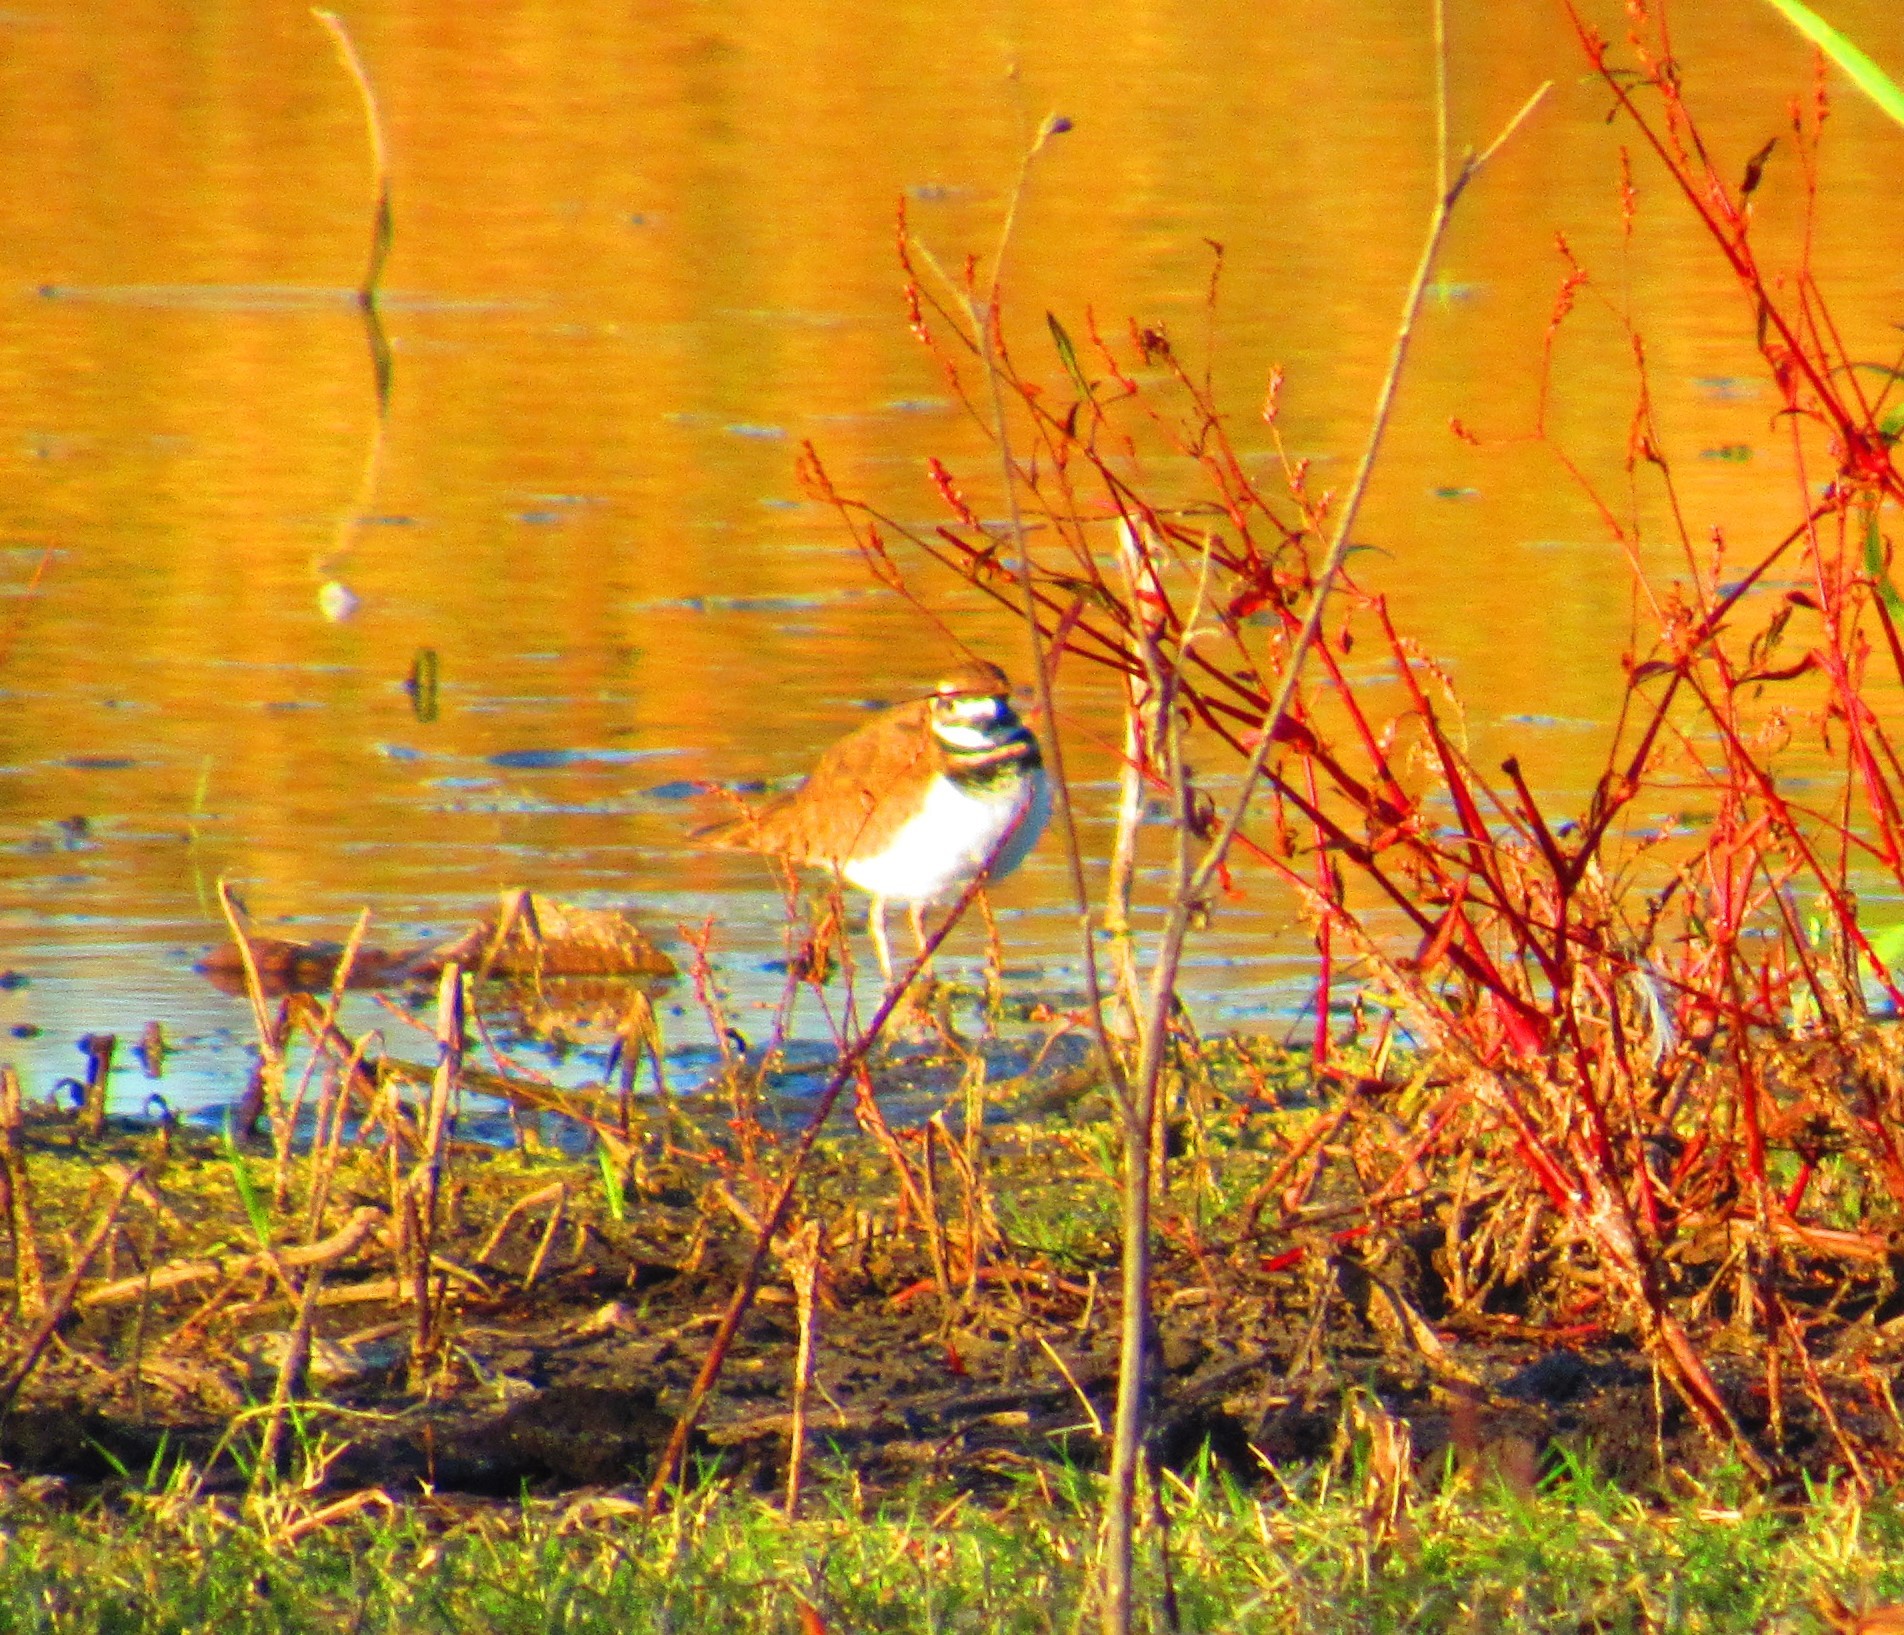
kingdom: Animalia
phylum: Chordata
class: Aves
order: Charadriiformes
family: Charadriidae
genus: Charadrius
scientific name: Charadrius vociferus
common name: Killdeer
